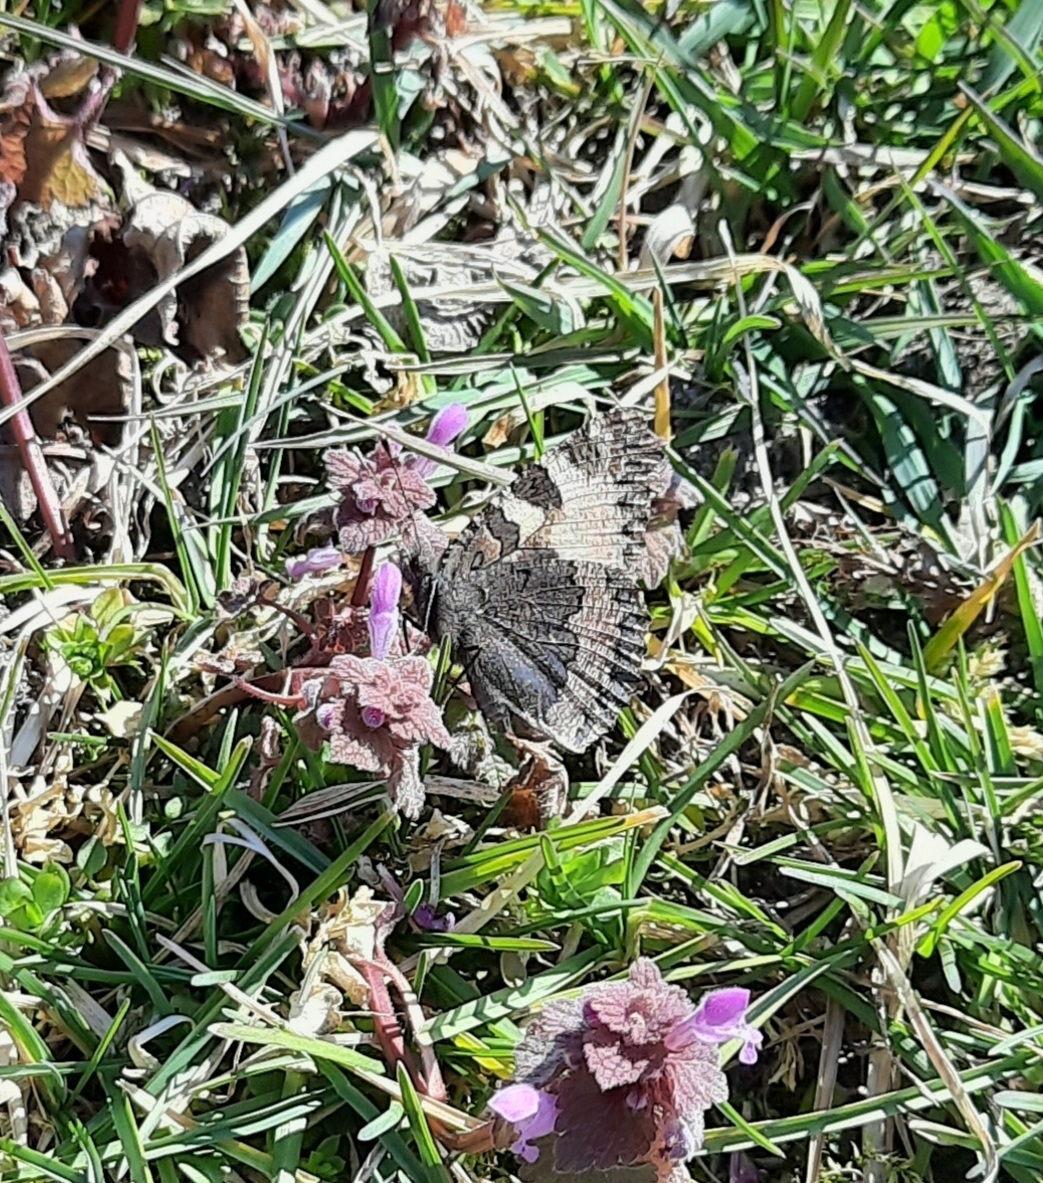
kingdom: Animalia
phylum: Arthropoda
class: Insecta
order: Lepidoptera
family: Nymphalidae
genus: Aglais
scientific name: Aglais urticae
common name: Small tortoiseshell
